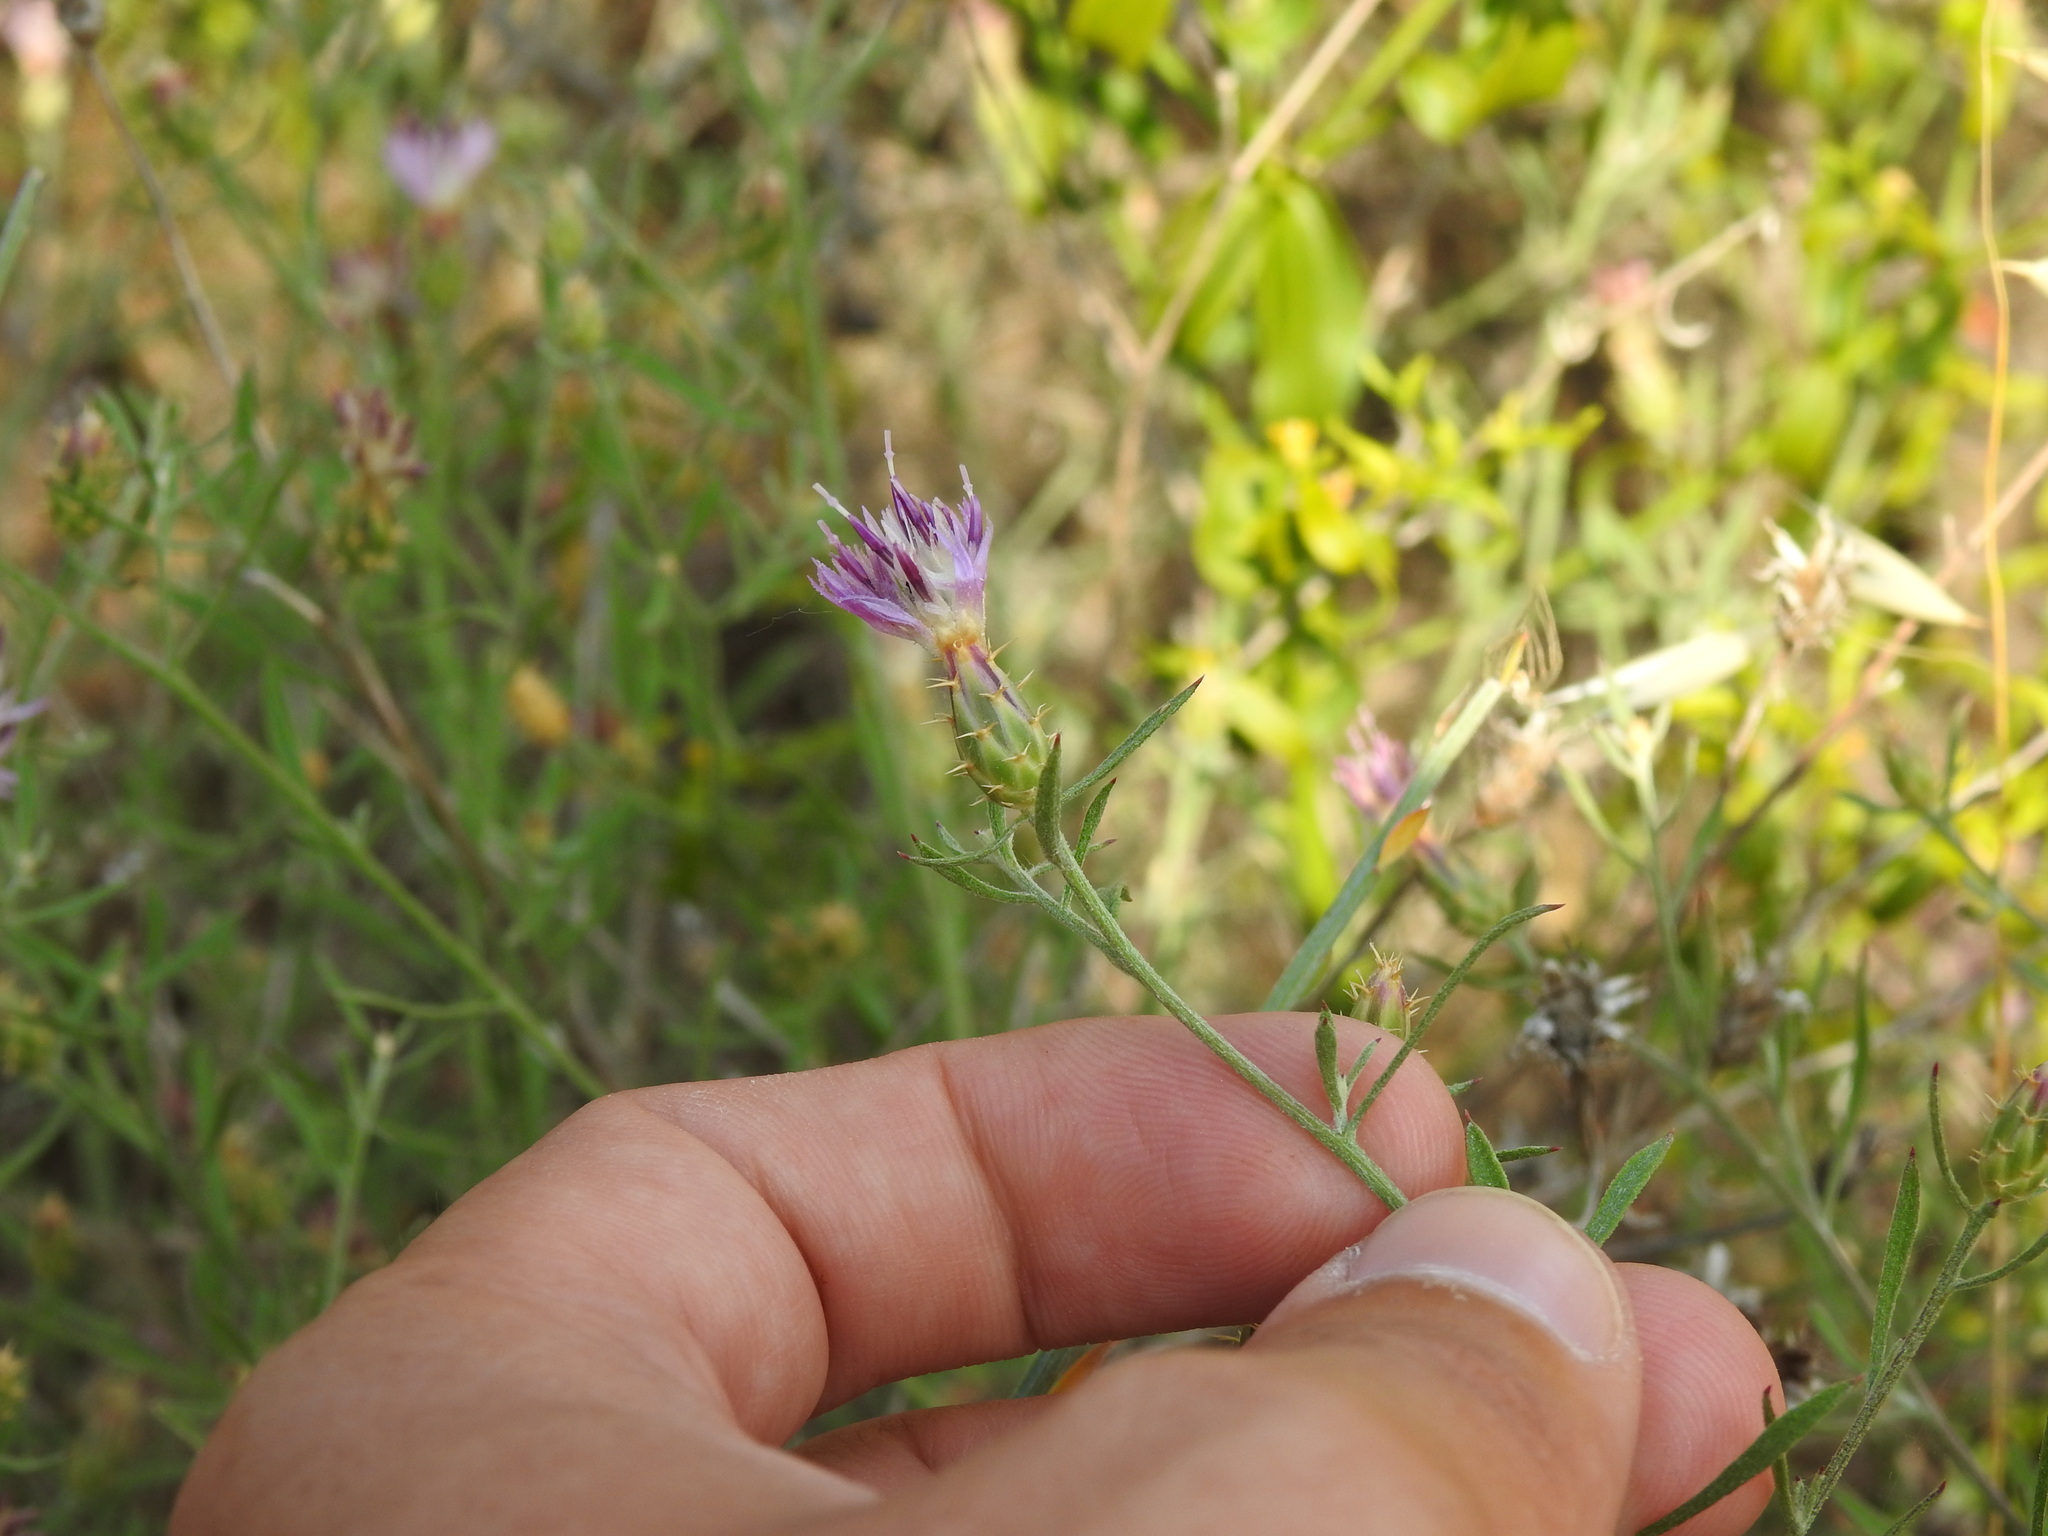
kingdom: Plantae
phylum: Tracheophyta
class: Magnoliopsida
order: Asterales
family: Asteraceae
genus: Centaurea
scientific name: Centaurea aspera
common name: Rough star-thistle
